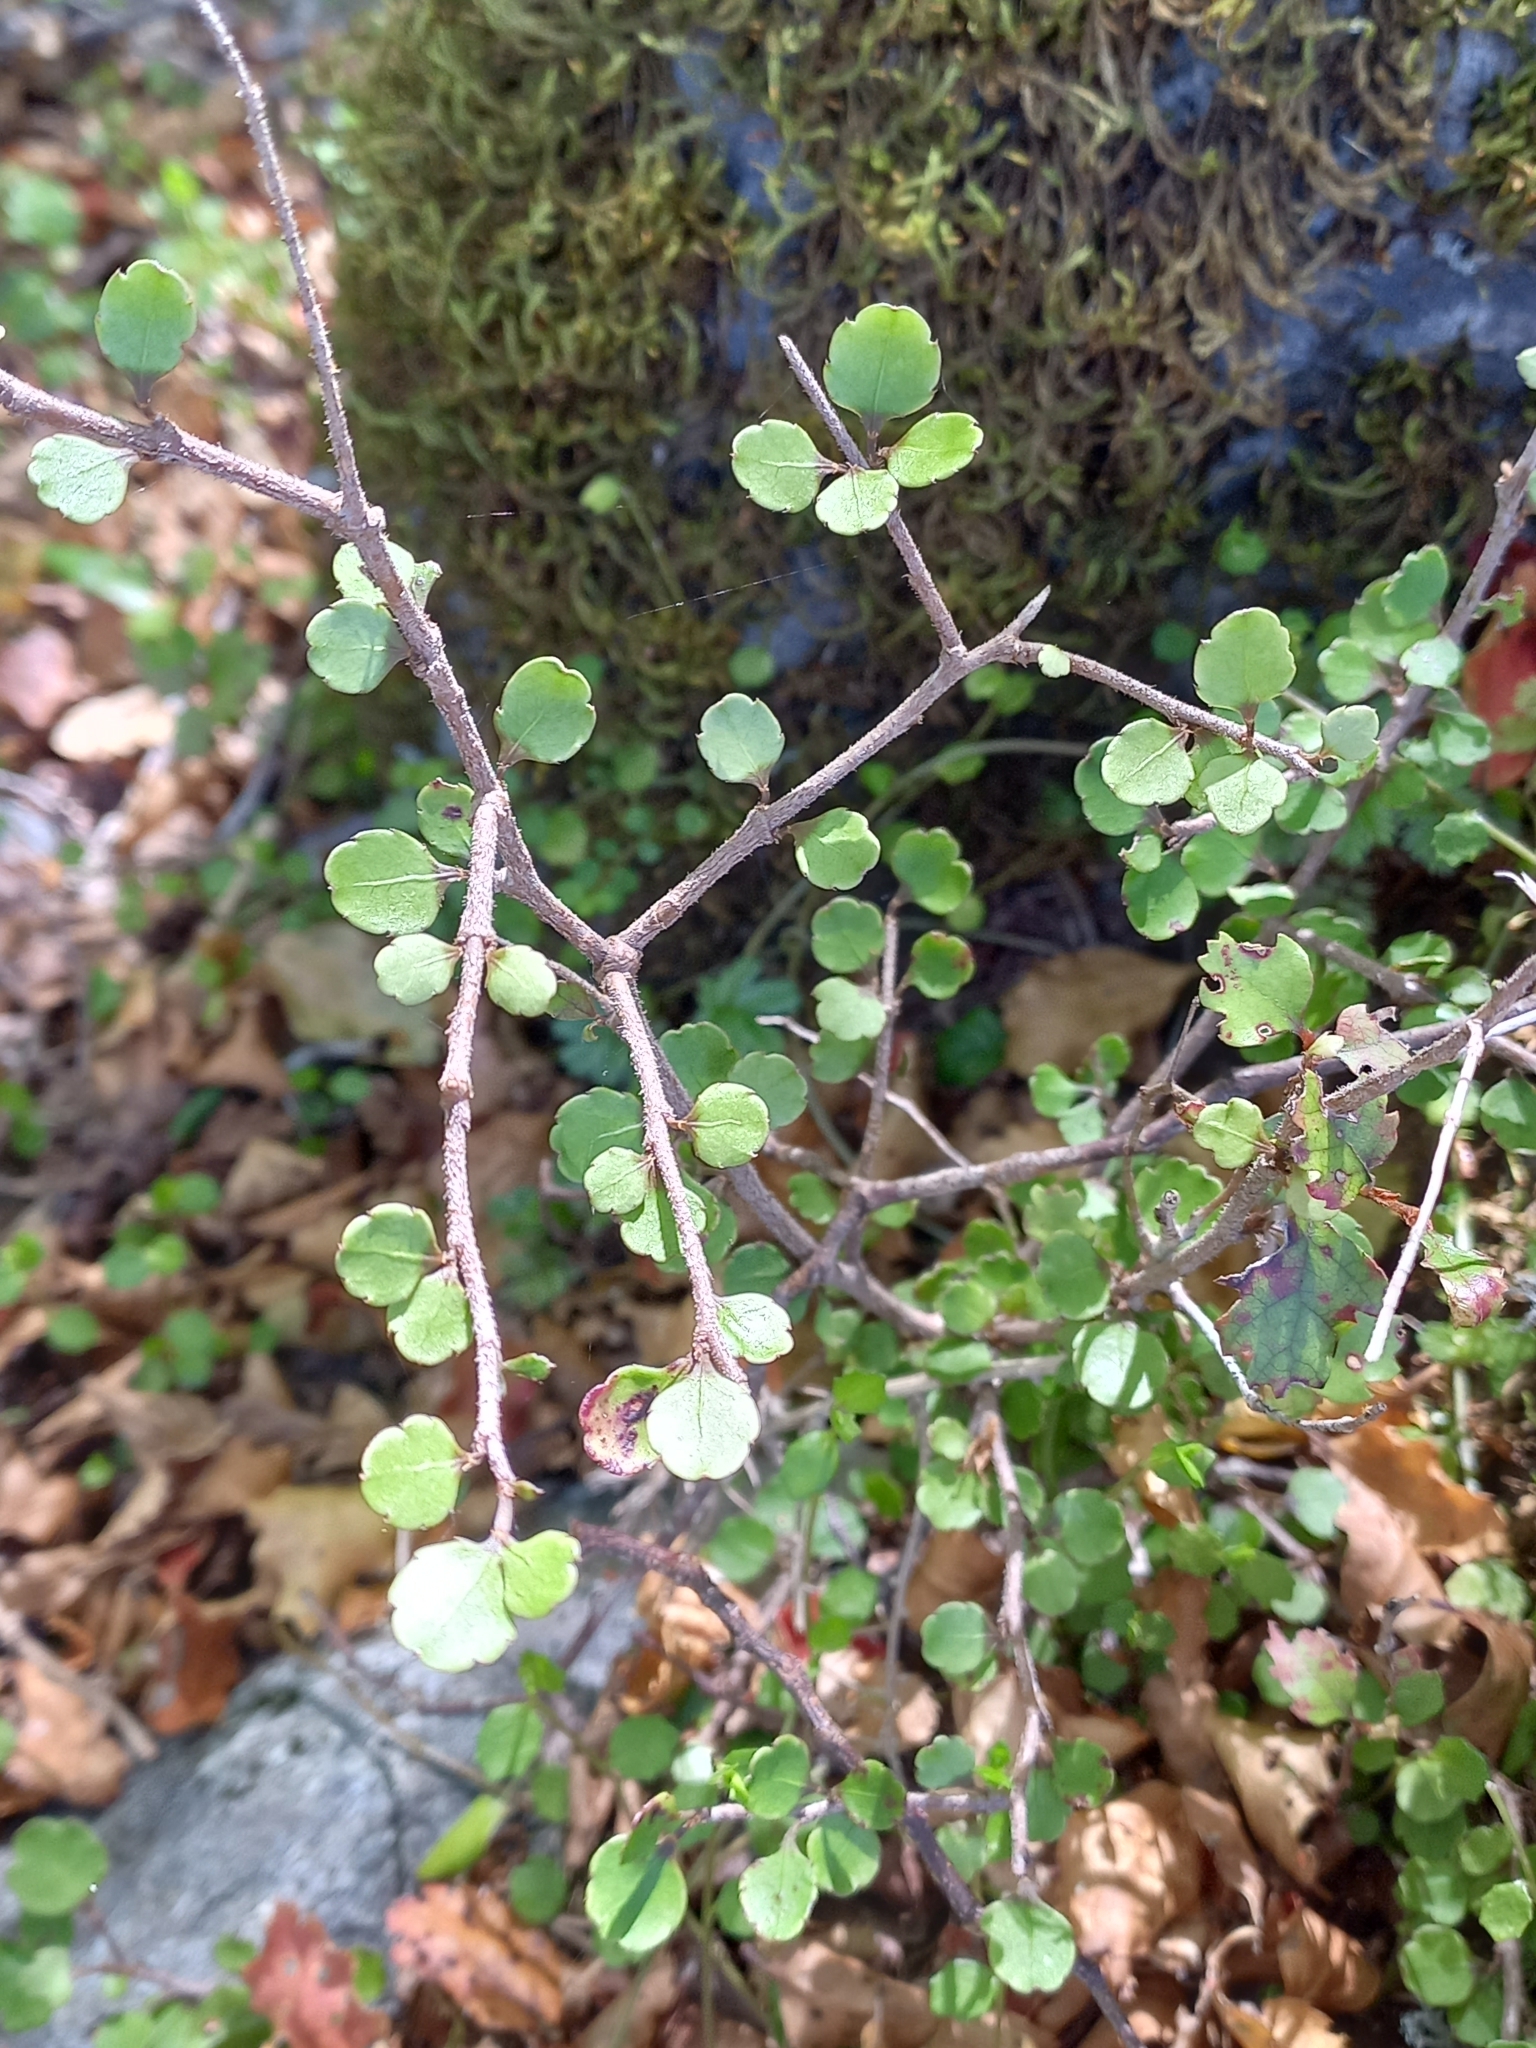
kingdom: Plantae
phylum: Tracheophyta
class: Magnoliopsida
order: Apiales
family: Araliaceae
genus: Raukaua
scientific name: Raukaua anomalus
